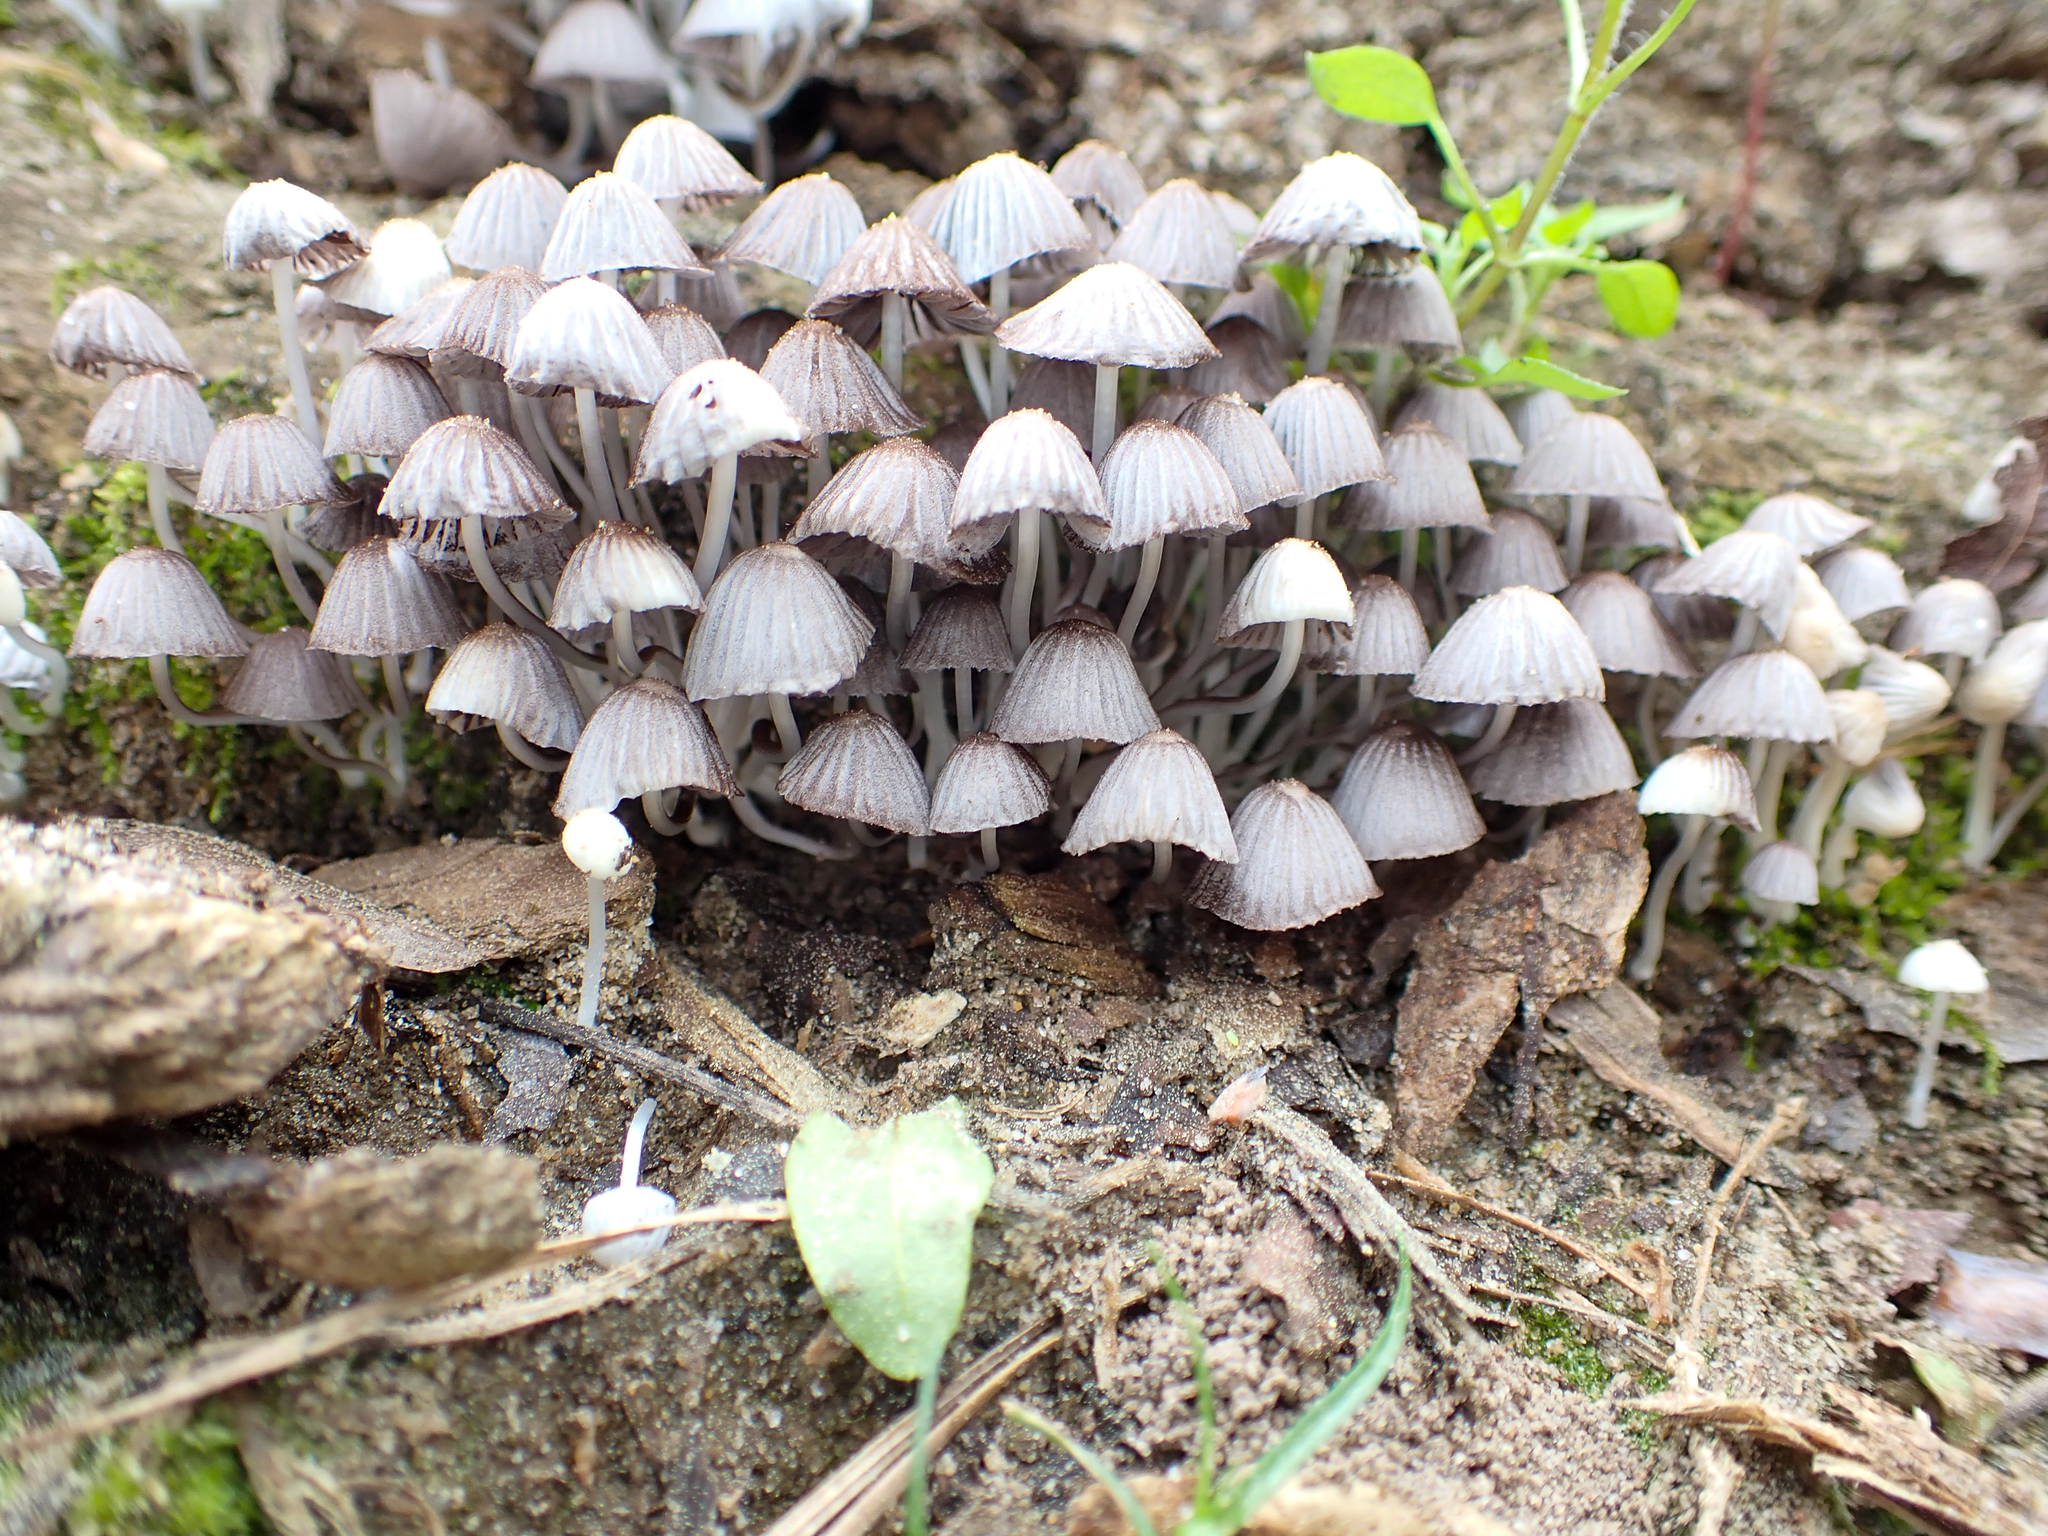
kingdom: Fungi
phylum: Basidiomycota
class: Agaricomycetes
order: Agaricales
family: Psathyrellaceae
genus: Coprinellus
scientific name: Coprinellus disseminatus
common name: Fairies' bonnets
